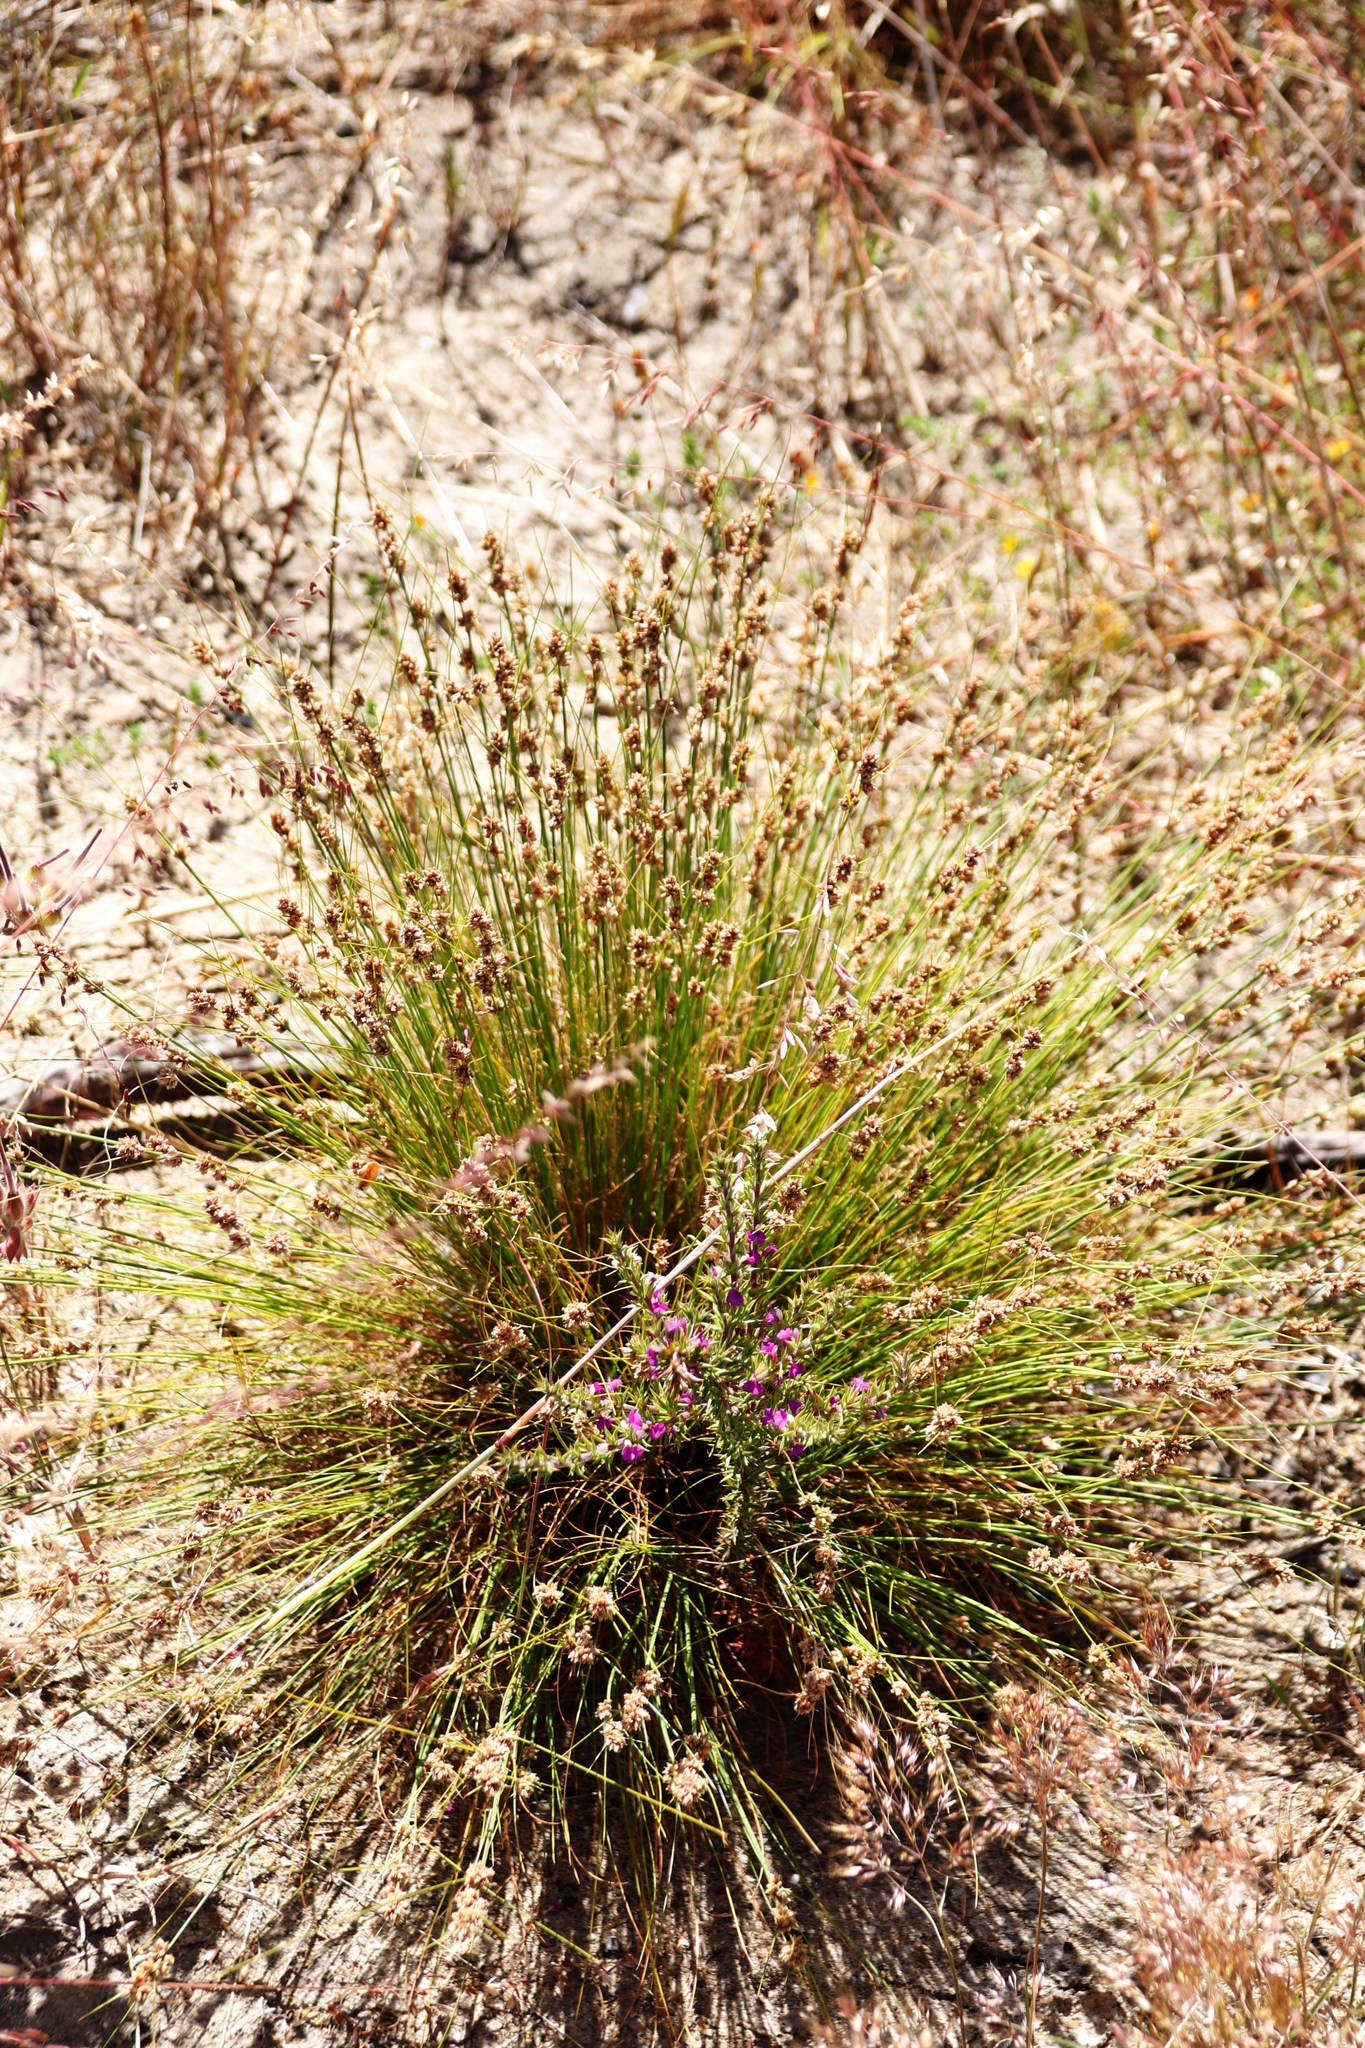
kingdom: Plantae
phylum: Tracheophyta
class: Liliopsida
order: Poales
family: Cyperaceae
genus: Ficinia
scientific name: Ficinia bulbosa
